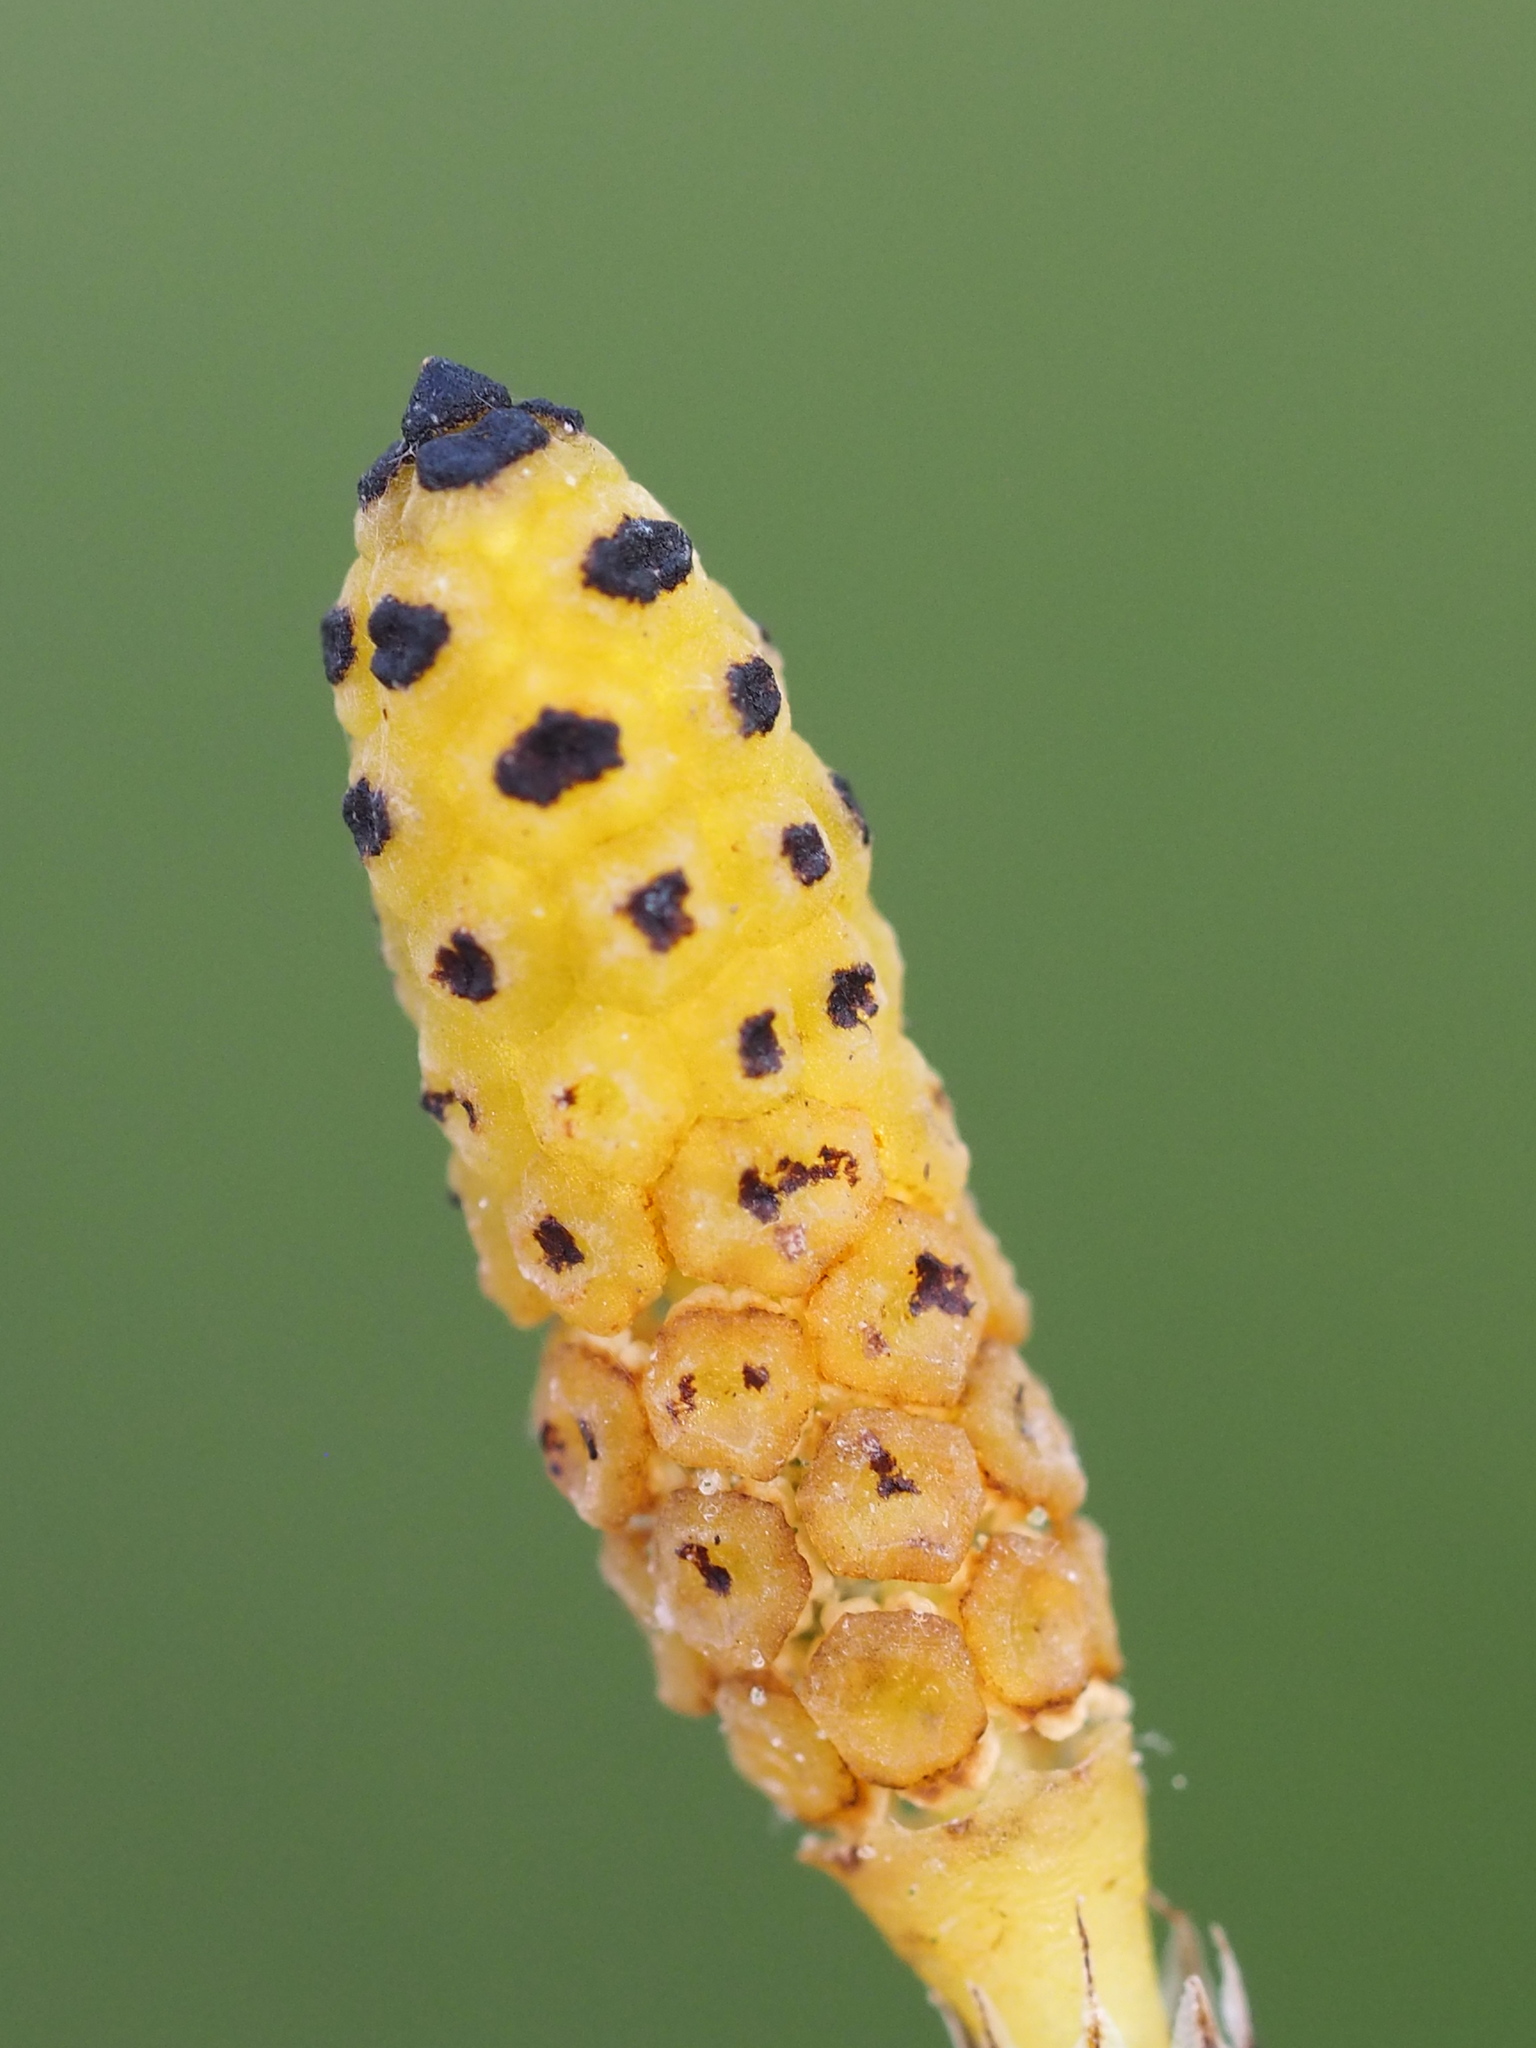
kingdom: Plantae
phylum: Tracheophyta
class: Polypodiopsida
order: Equisetales
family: Equisetaceae
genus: Equisetum
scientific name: Equisetum ramosissimum
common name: Branched horsetail
